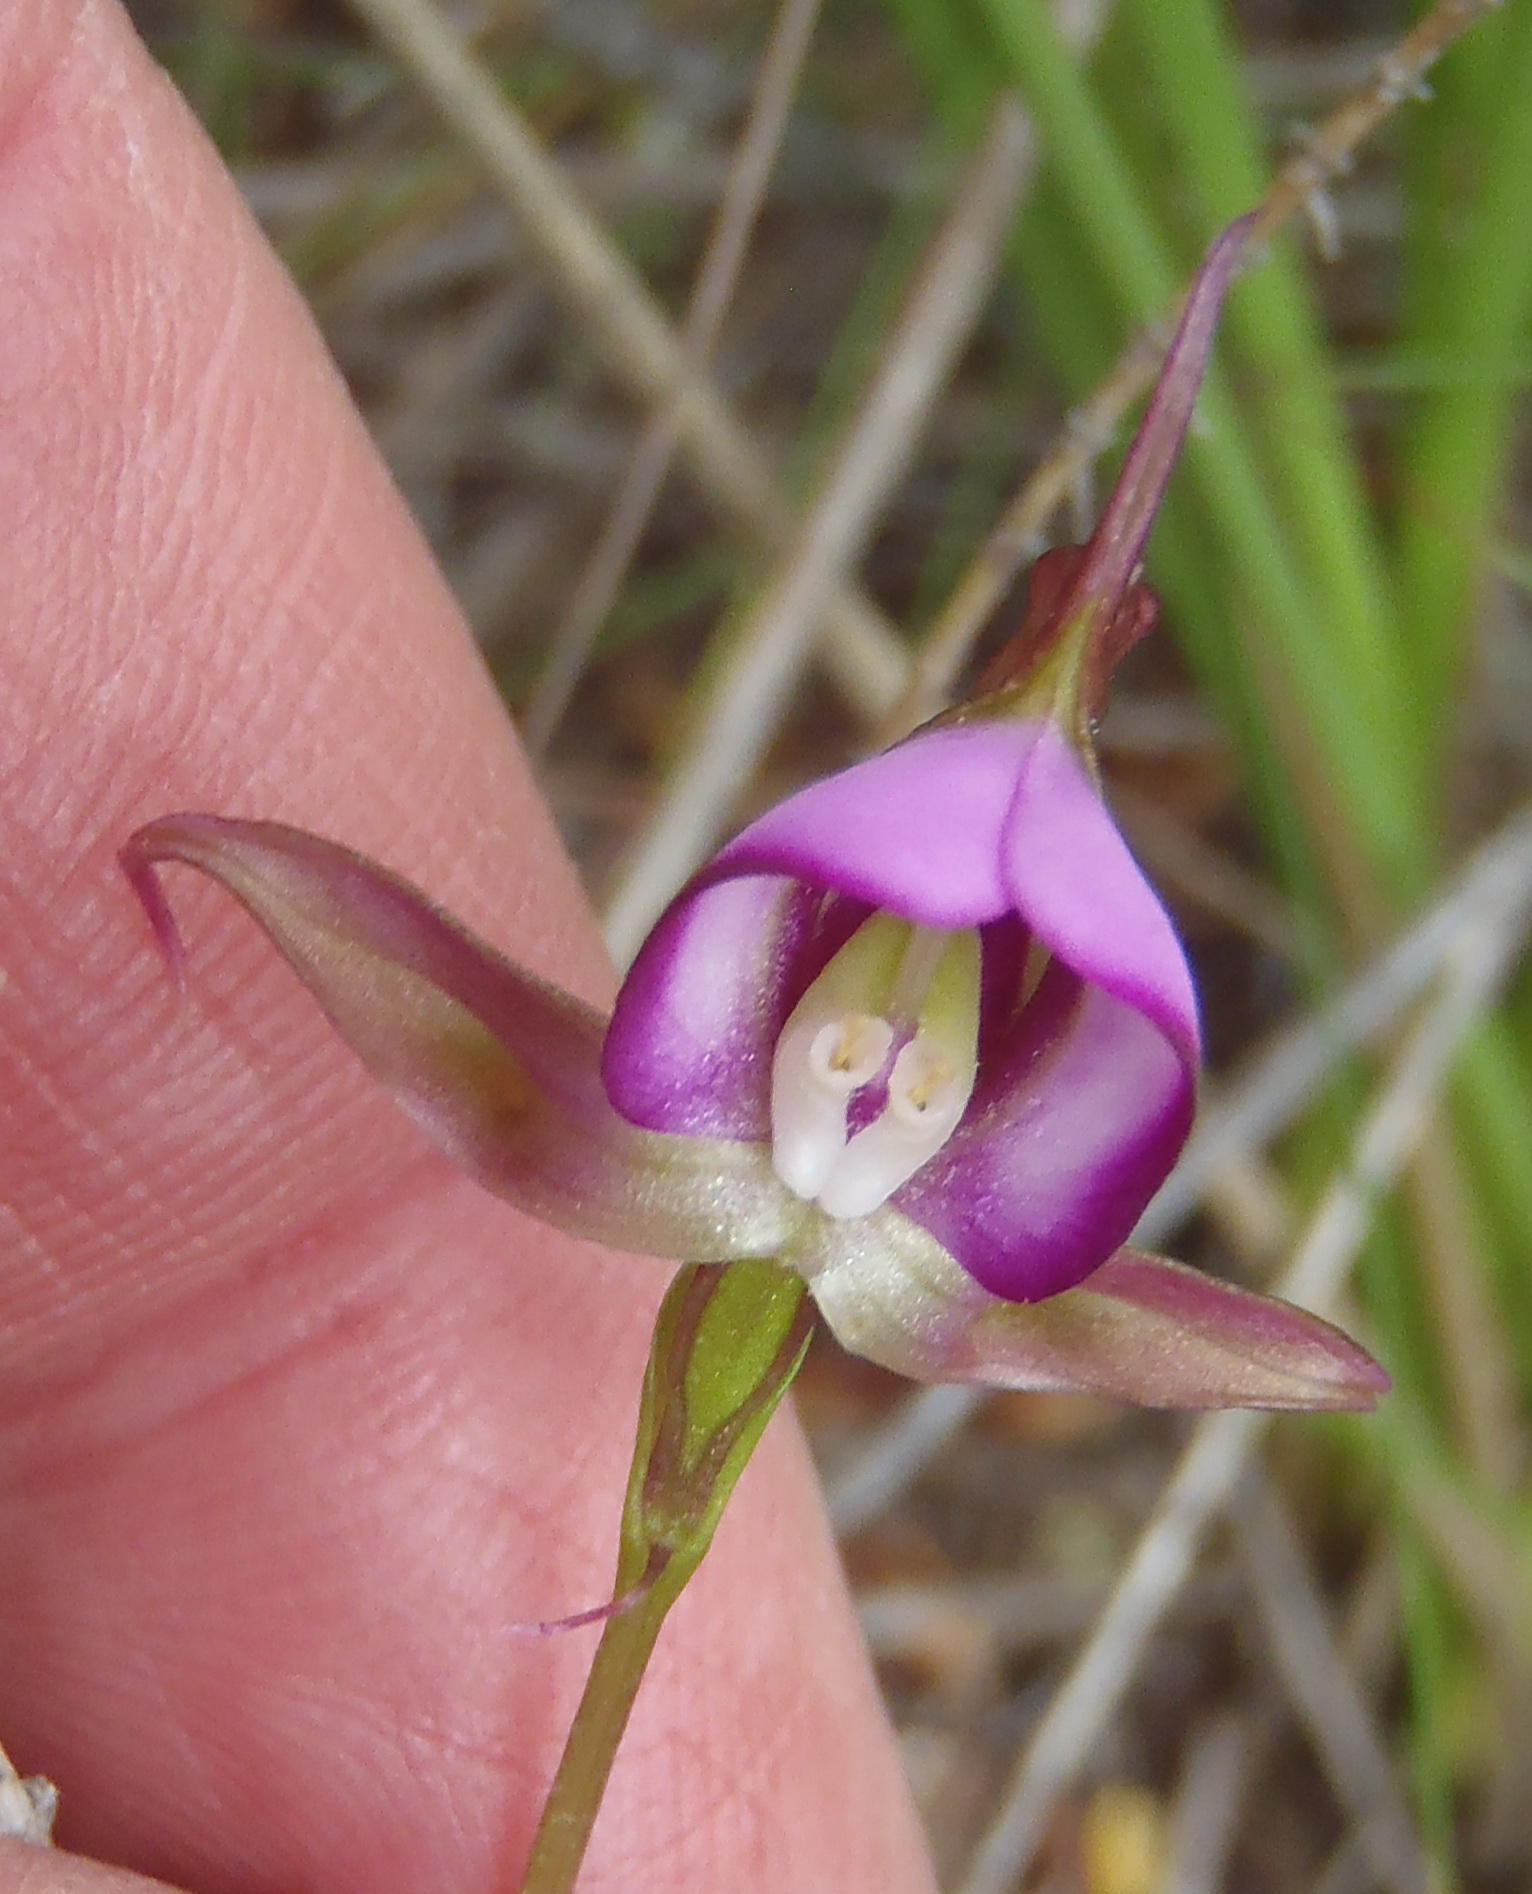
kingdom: Plantae
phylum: Tracheophyta
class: Liliopsida
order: Asparagales
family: Orchidaceae
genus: Disperis
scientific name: Disperis capensis
